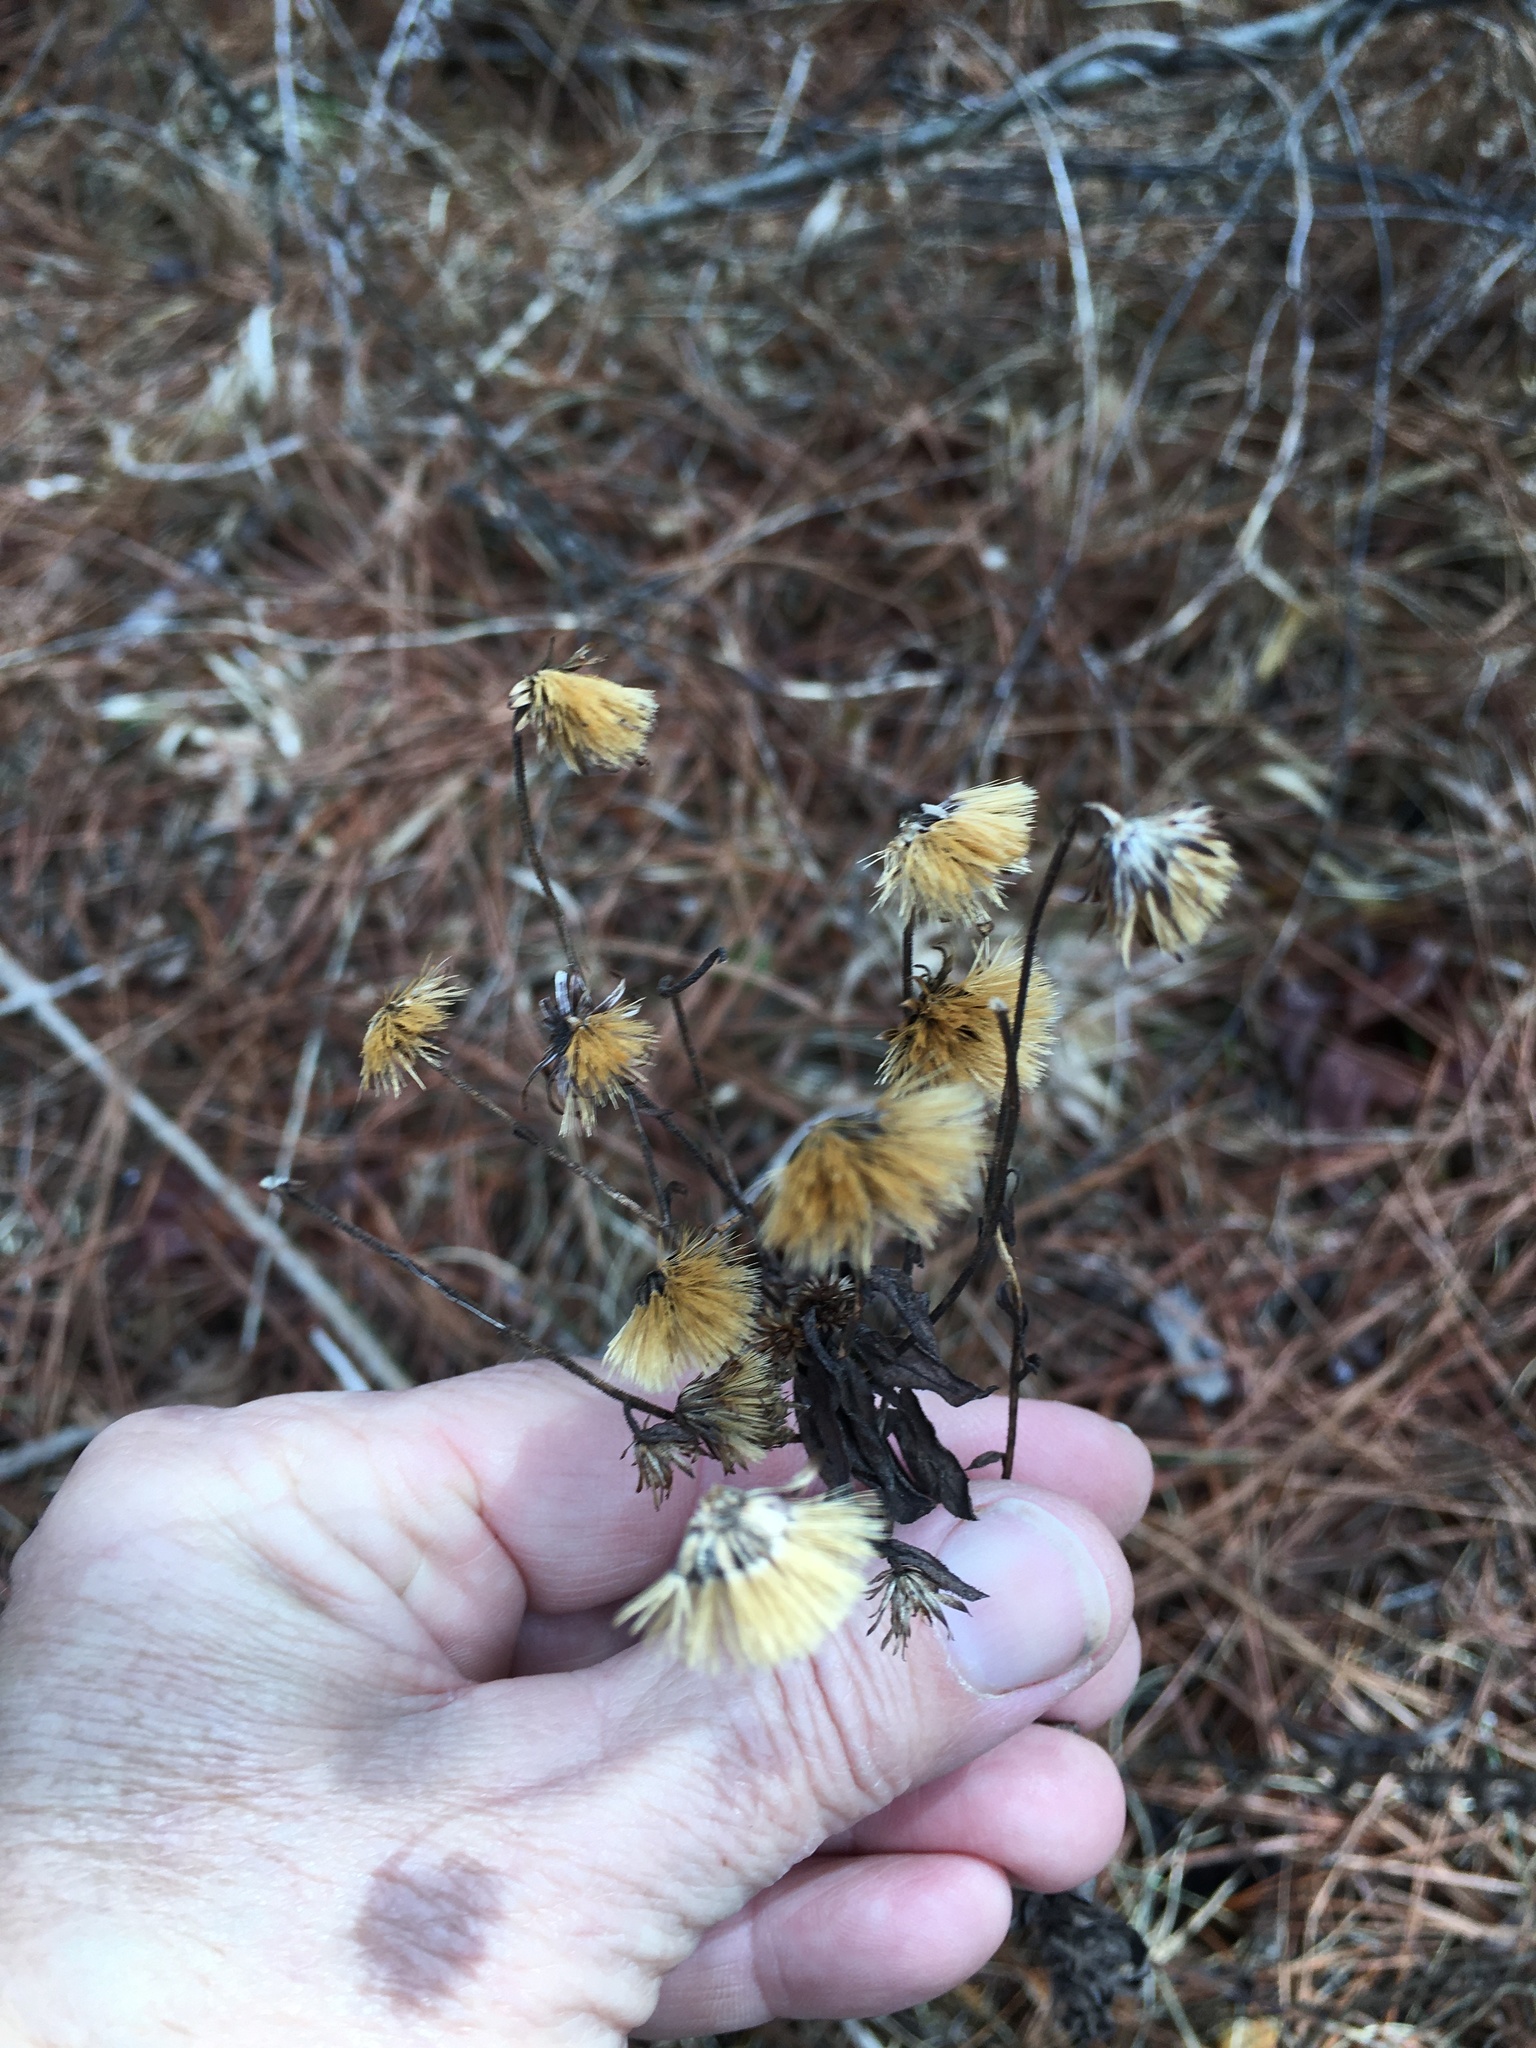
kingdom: Plantae
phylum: Tracheophyta
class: Magnoliopsida
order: Asterales
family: Asteraceae
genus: Chrysopsis
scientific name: Chrysopsis mariana
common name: Maryland golden-aster
